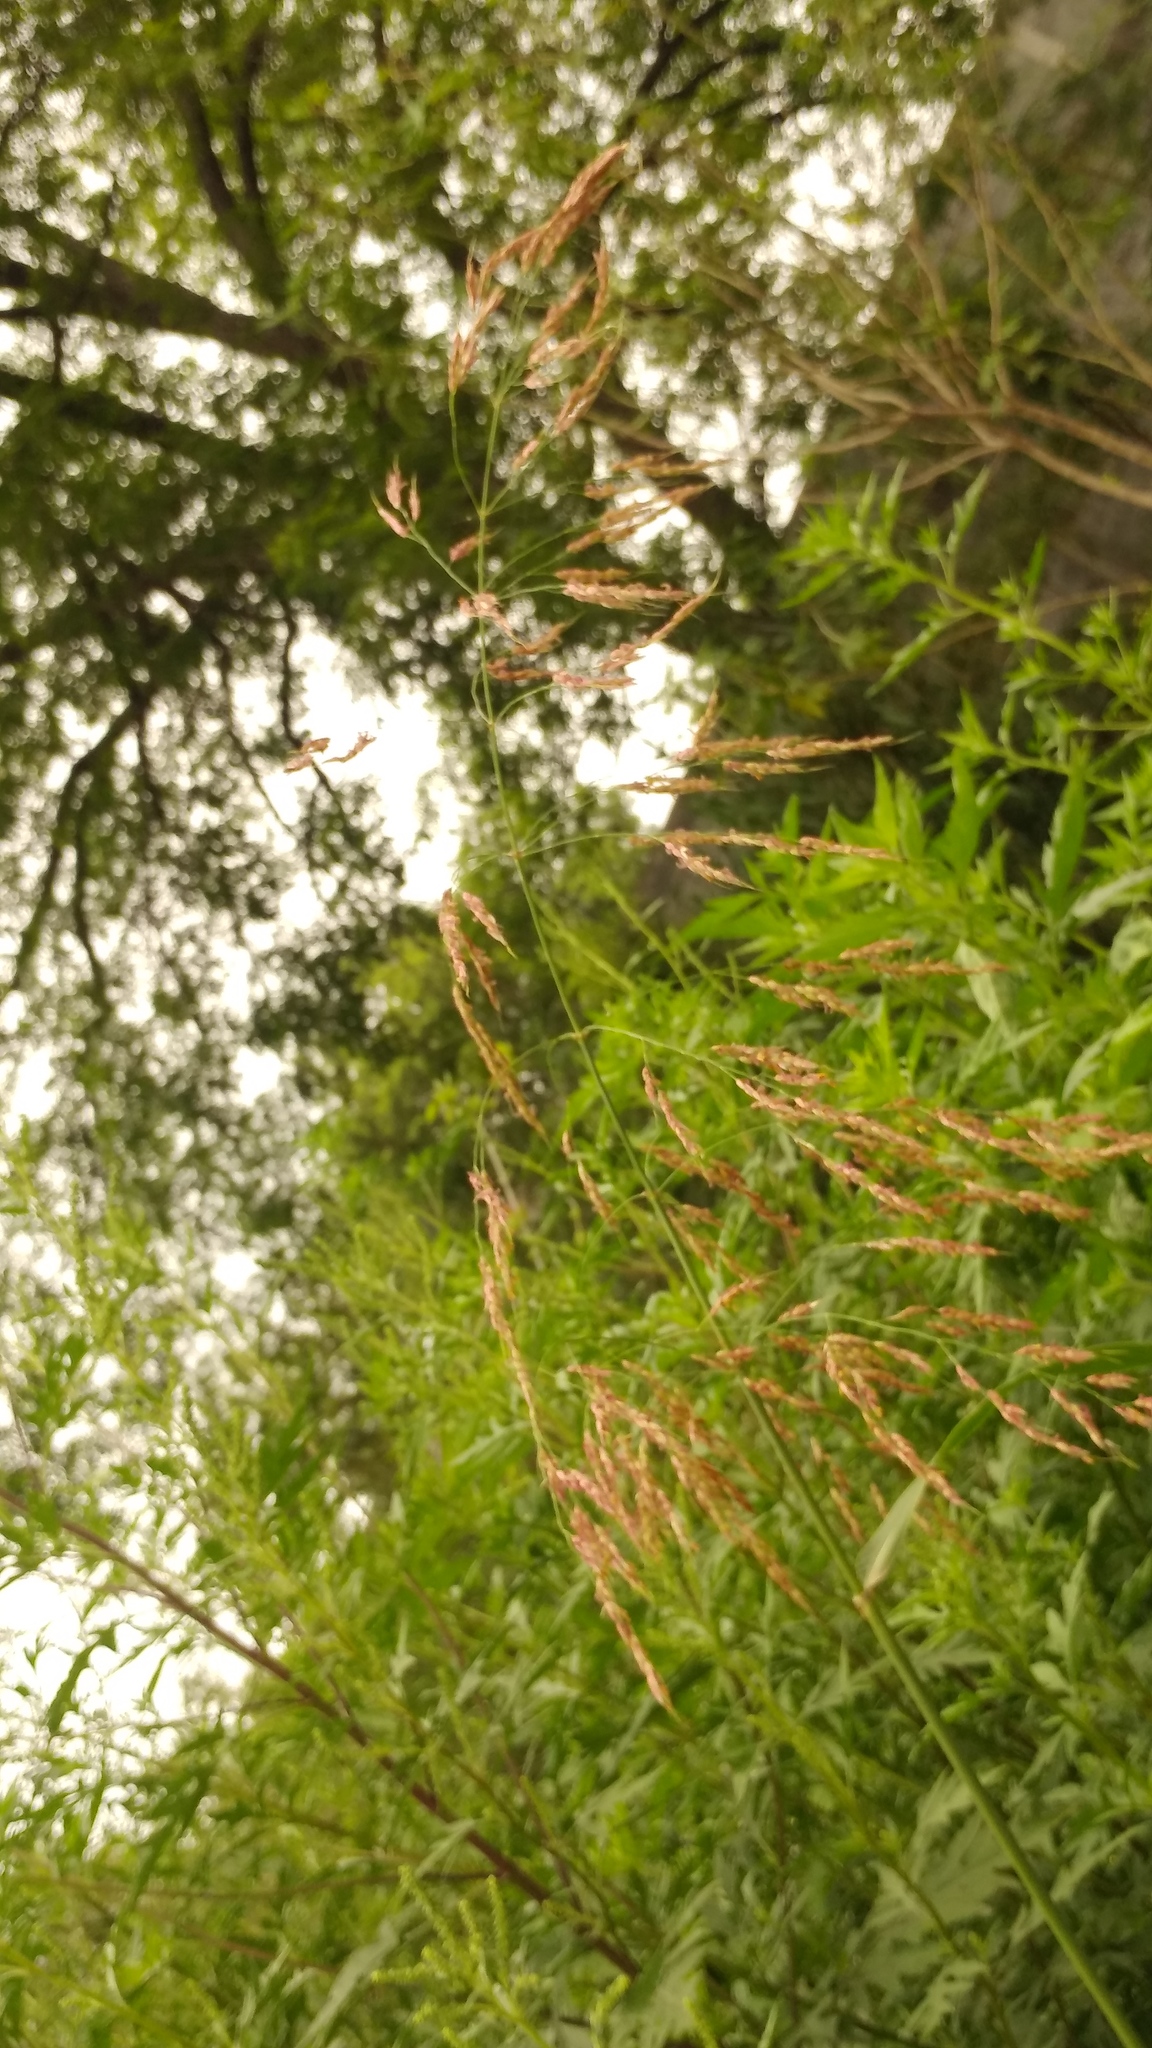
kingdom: Plantae
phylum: Tracheophyta
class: Liliopsida
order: Poales
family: Poaceae
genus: Sorghum
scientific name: Sorghum halepense
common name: Johnson-grass
